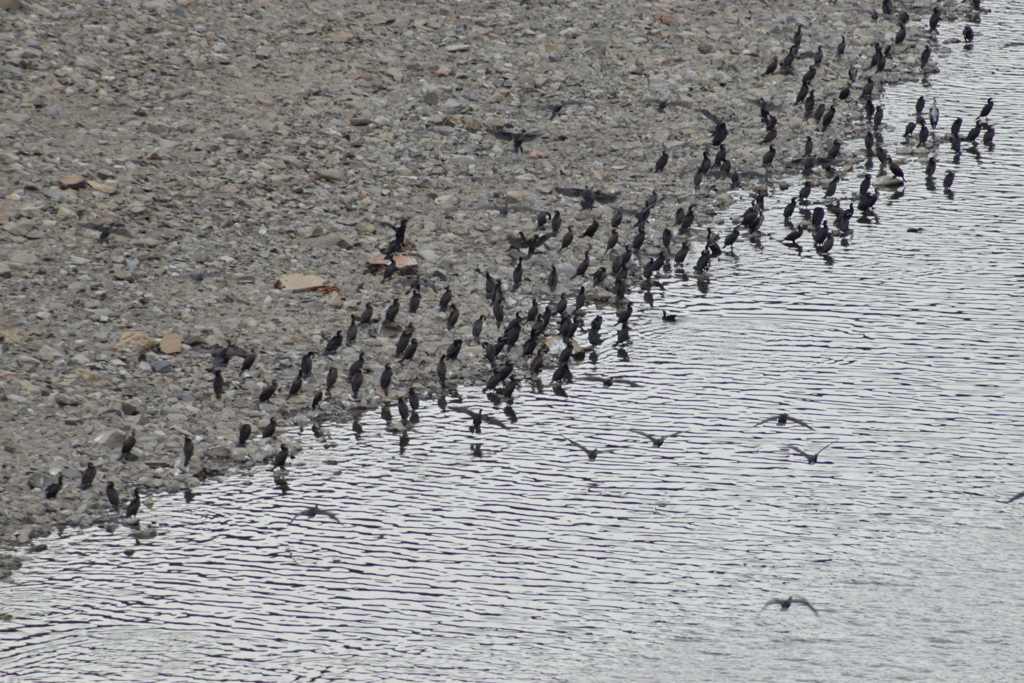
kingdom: Animalia
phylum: Chordata
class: Aves
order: Suliformes
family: Phalacrocoracidae
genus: Phalacrocorax
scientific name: Phalacrocorax carbo
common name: Great cormorant
